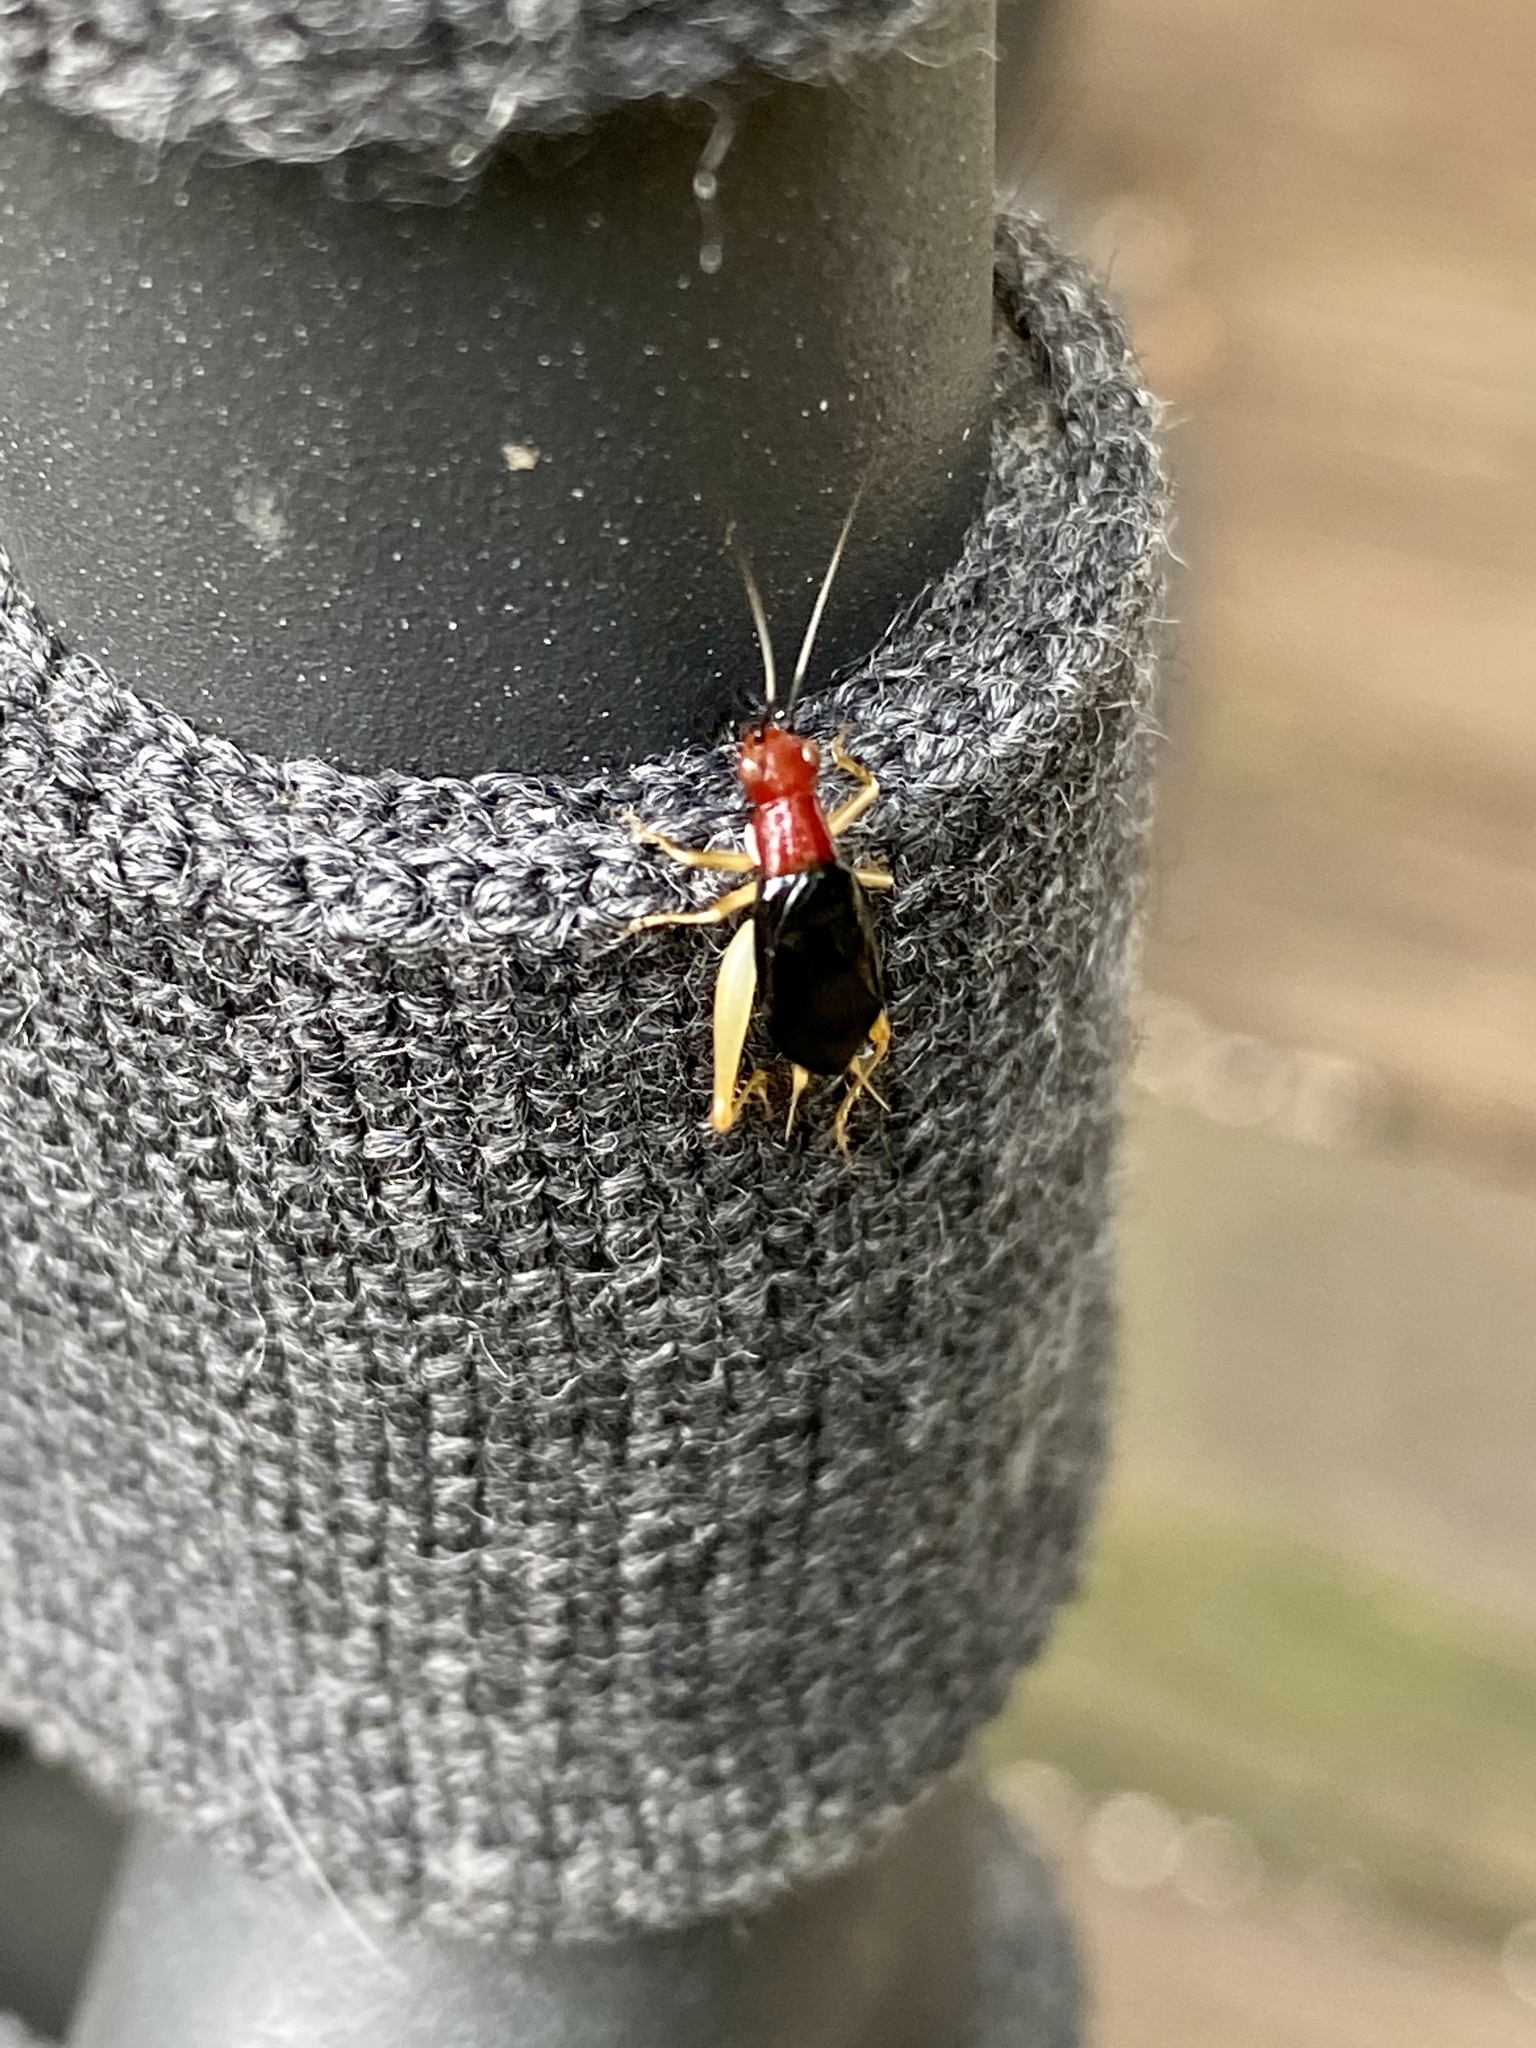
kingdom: Animalia
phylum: Arthropoda
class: Insecta
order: Orthoptera
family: Trigonidiidae
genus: Phyllopalpus
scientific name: Phyllopalpus pulchellus
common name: Handsome trig
